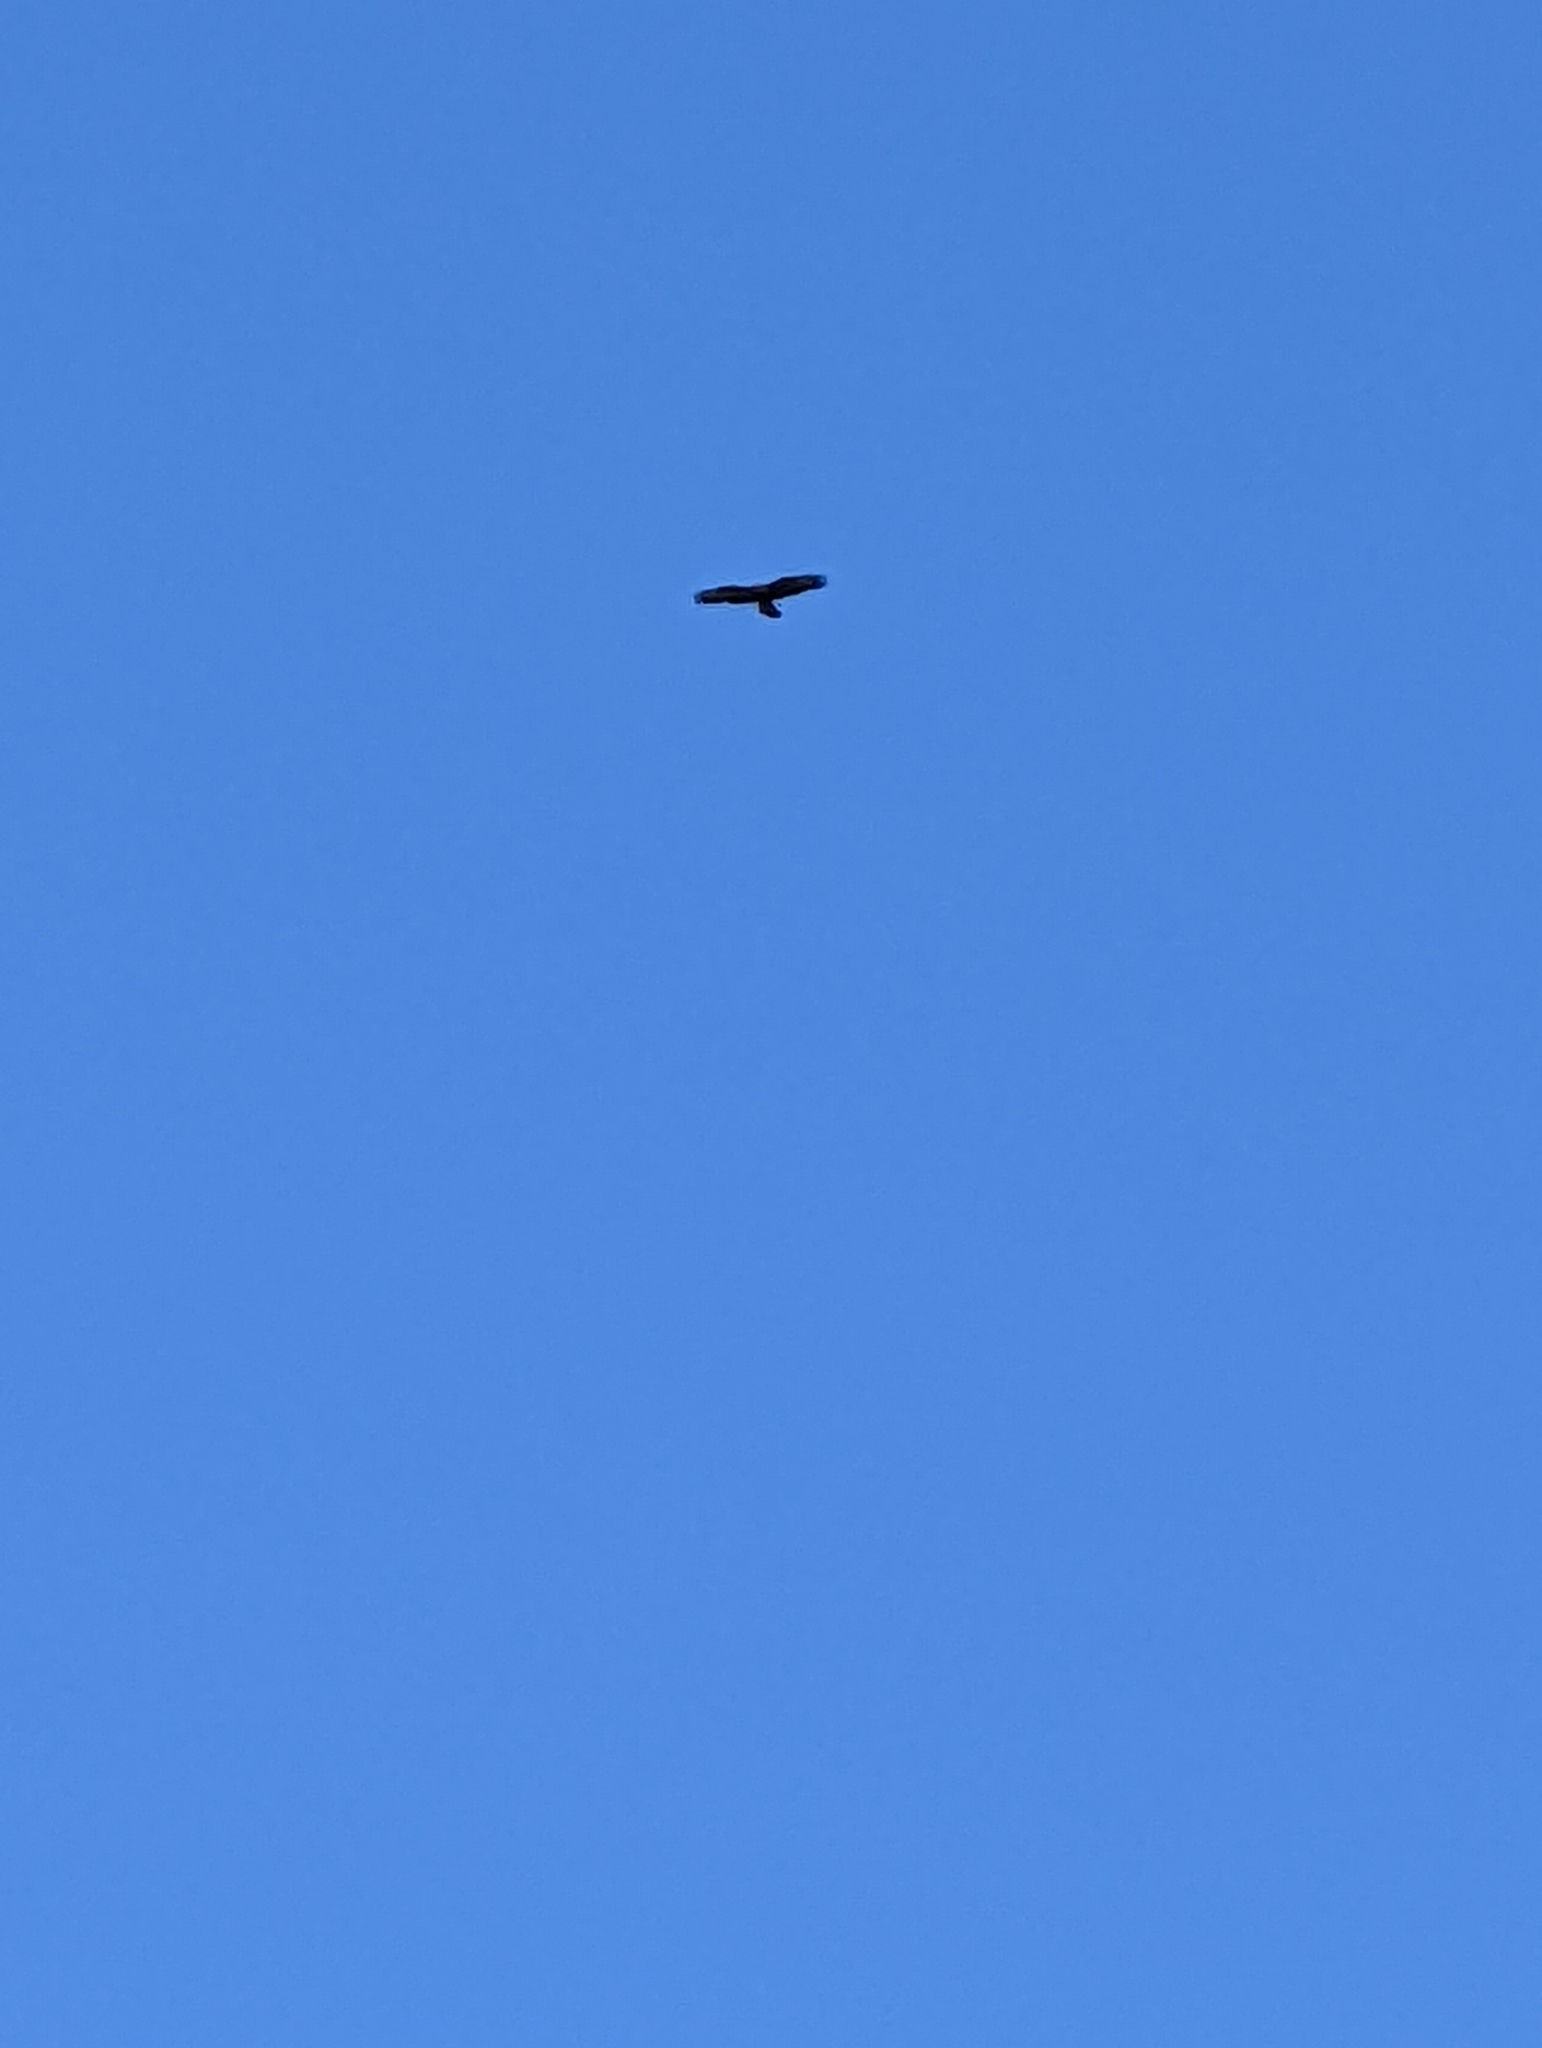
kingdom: Animalia
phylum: Chordata
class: Aves
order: Accipitriformes
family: Accipitridae
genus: Buteo
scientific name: Buteo buteo
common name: Common buzzard
